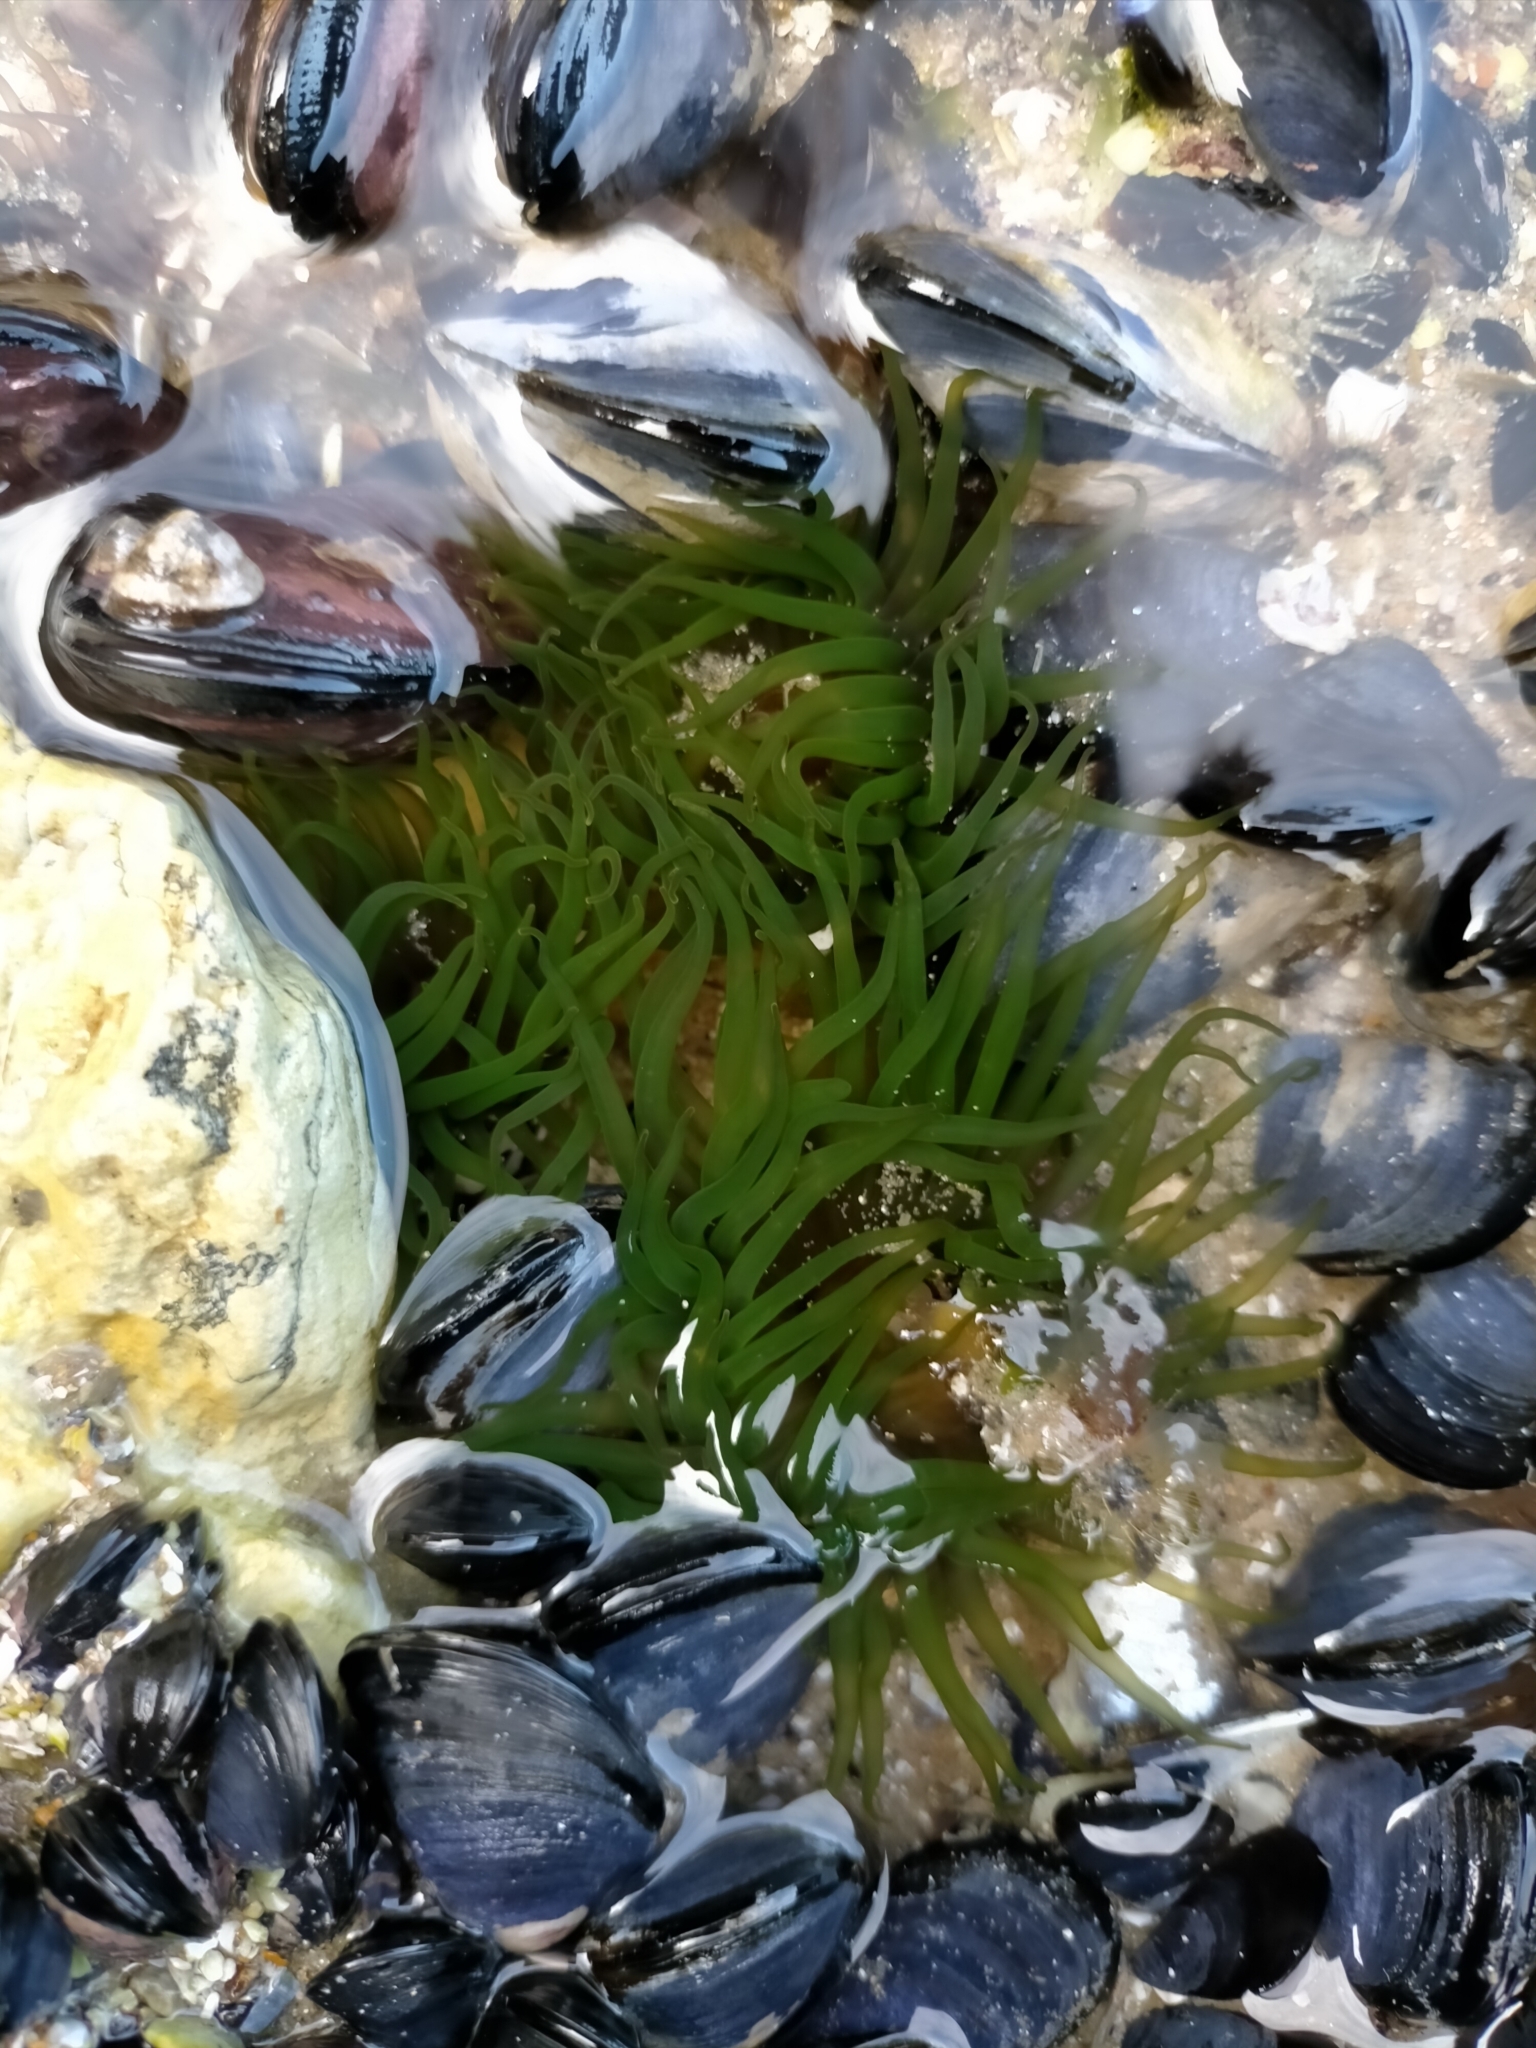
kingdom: Animalia
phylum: Cnidaria
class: Anthozoa
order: Actiniaria
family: Actiniidae
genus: Aulactinia
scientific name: Aulactinia veratra
